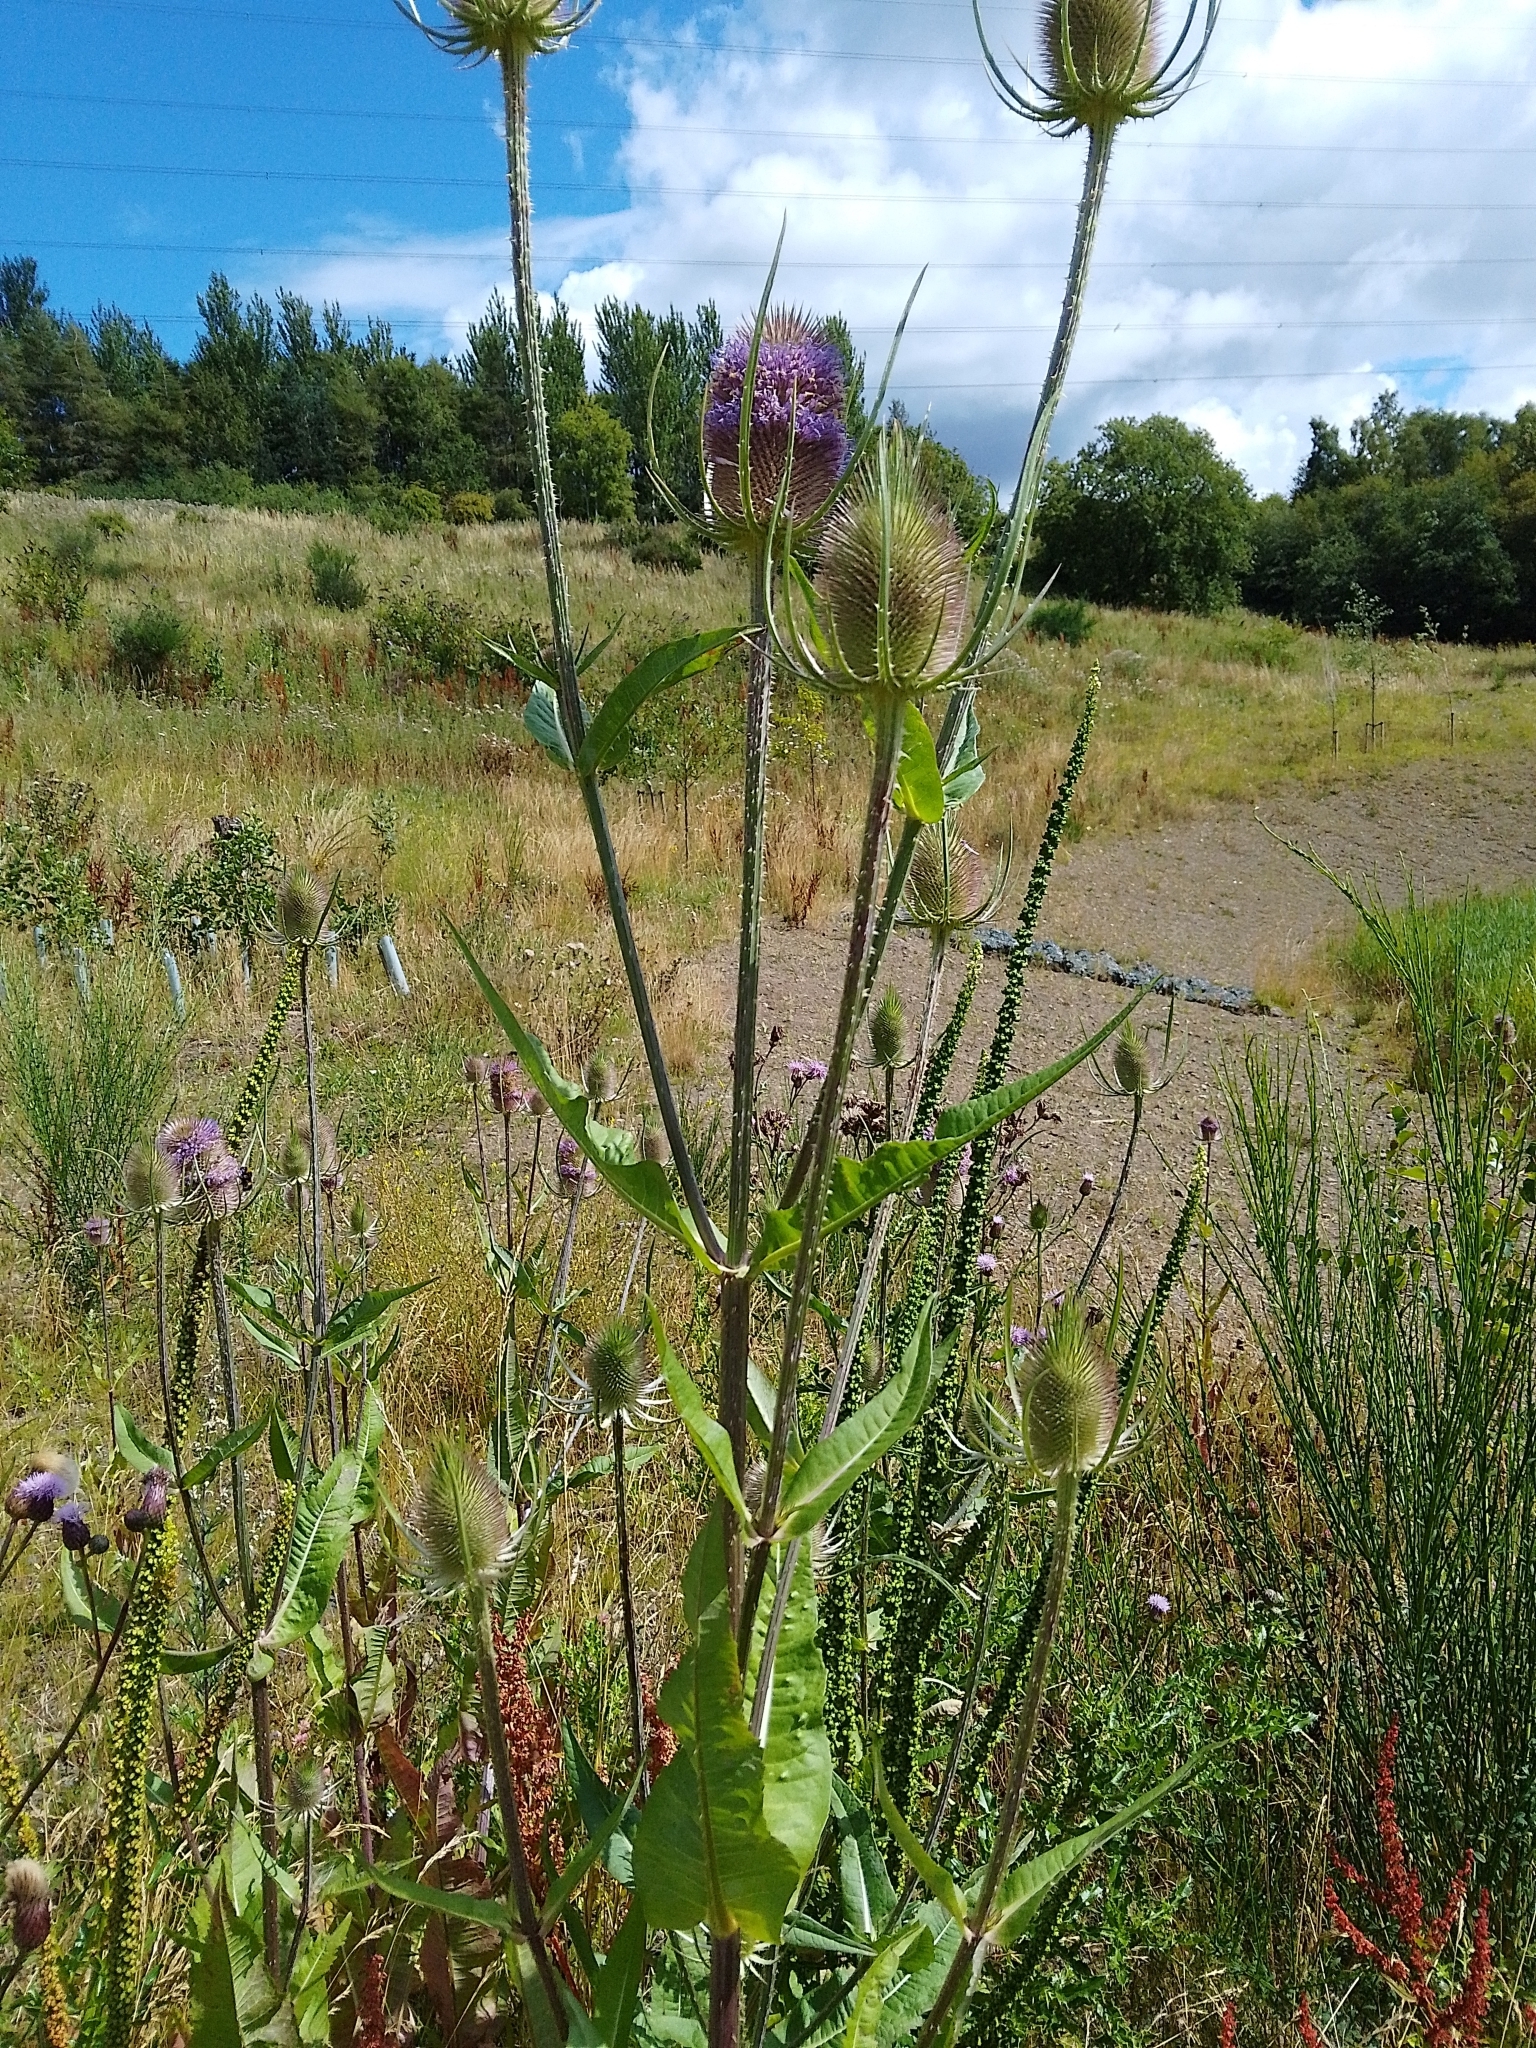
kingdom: Plantae
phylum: Tracheophyta
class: Magnoliopsida
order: Dipsacales
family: Caprifoliaceae
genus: Dipsacus
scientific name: Dipsacus fullonum
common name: Teasel
